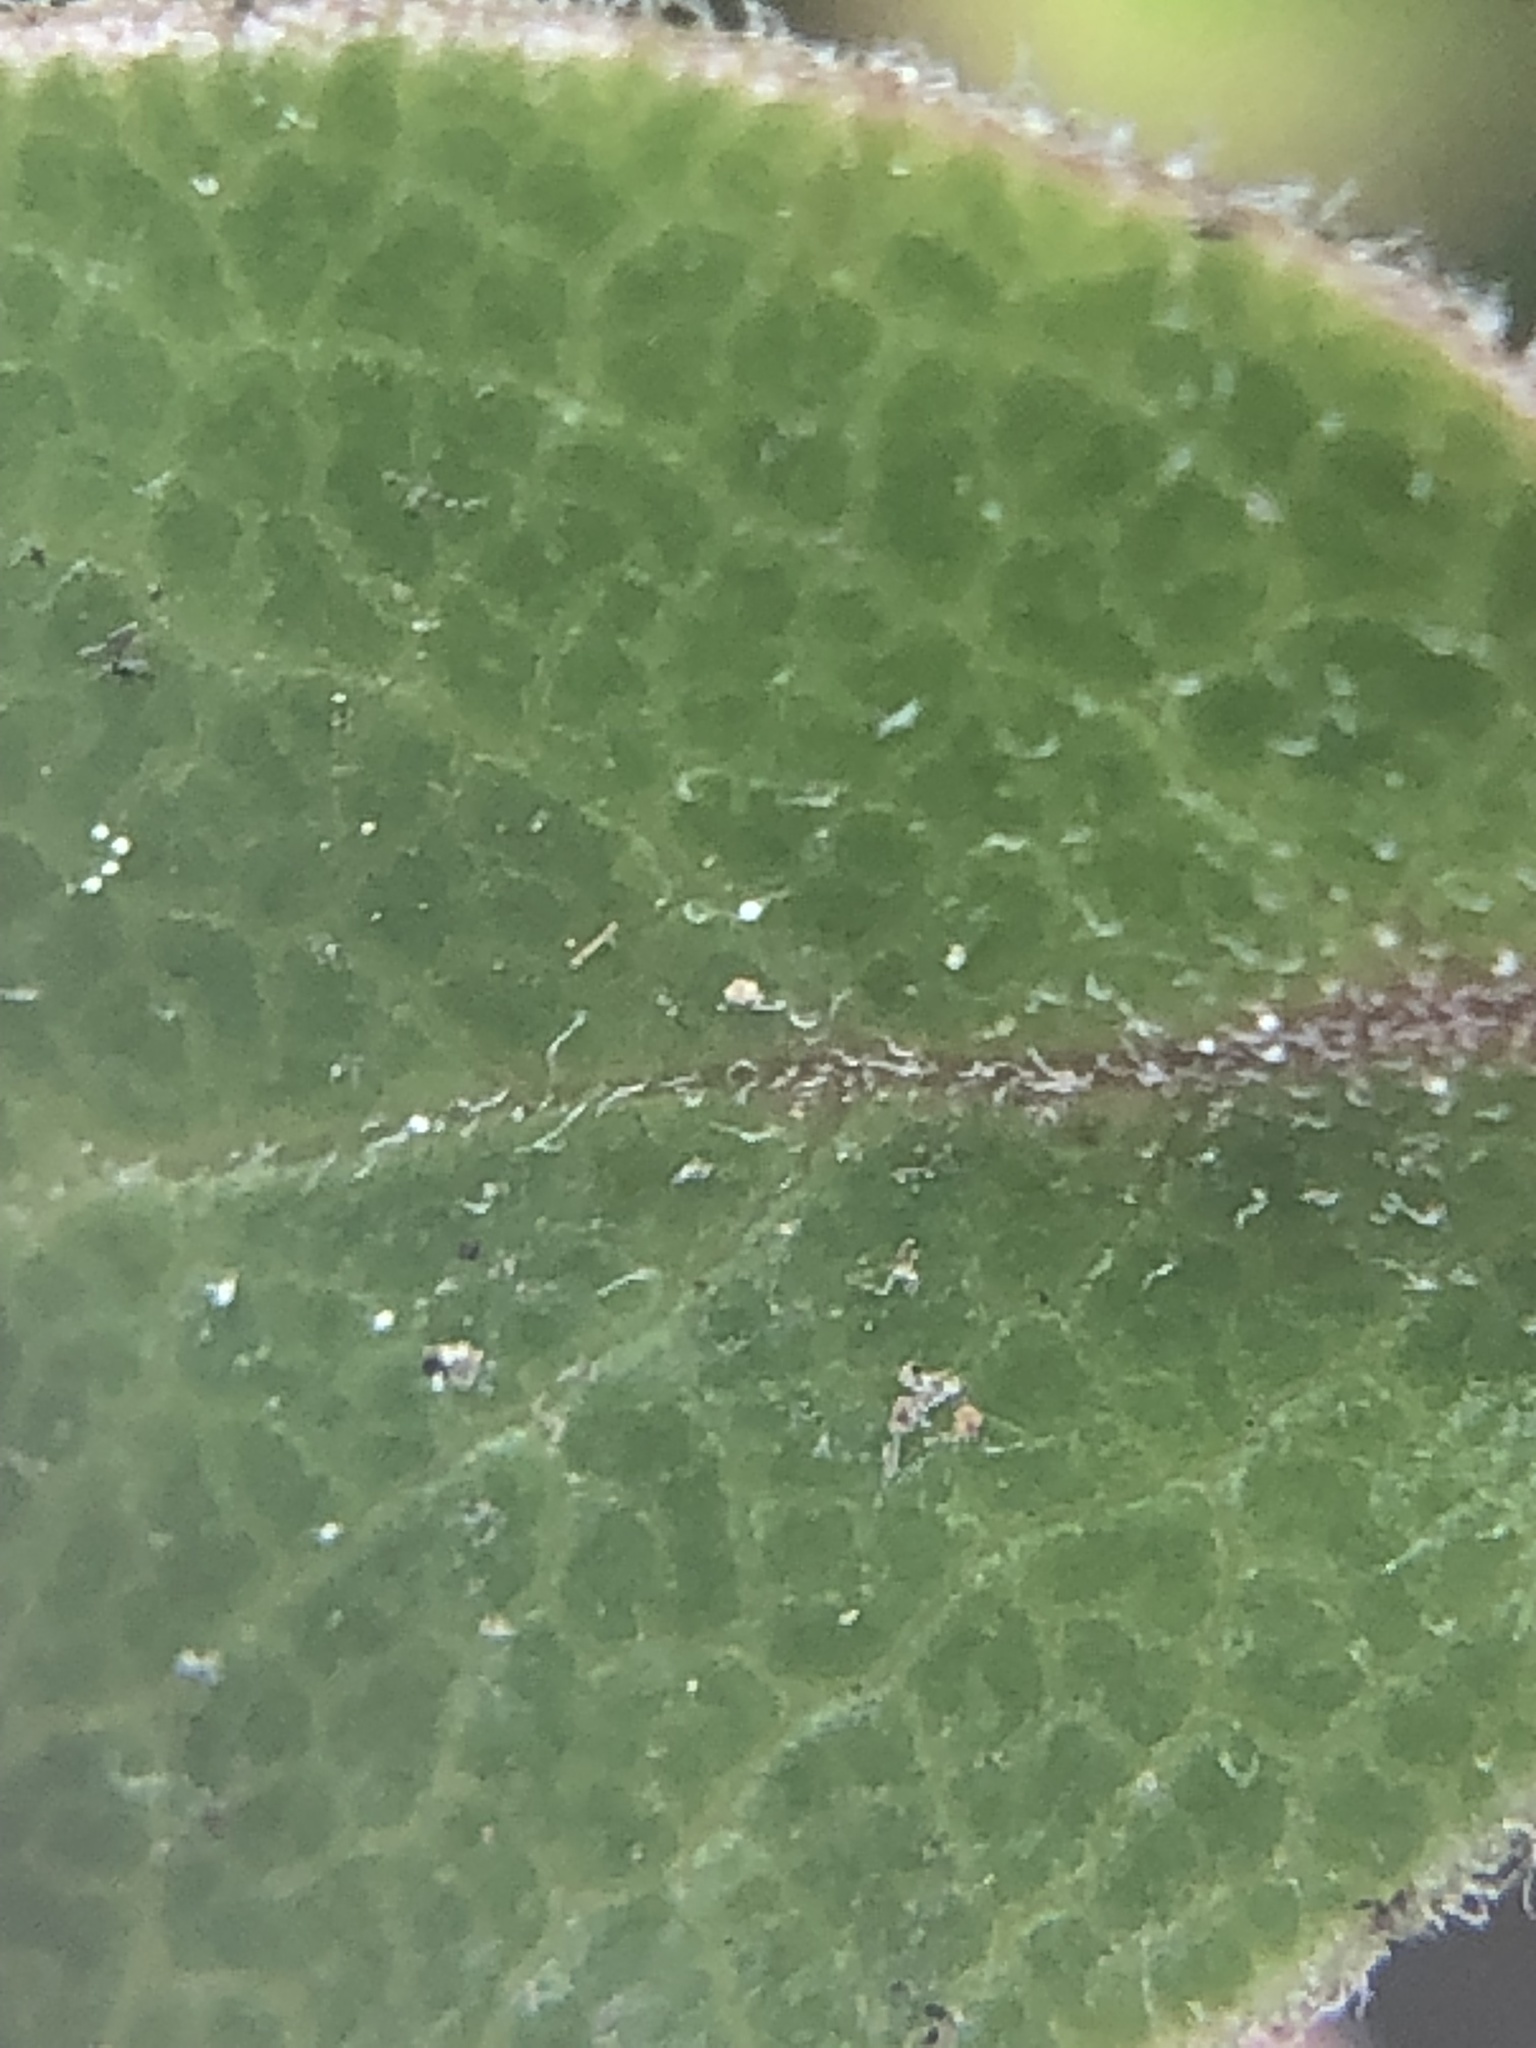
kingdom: Plantae
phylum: Tracheophyta
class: Magnoliopsida
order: Ericales
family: Ericaceae
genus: Arctostaphylos
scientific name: Arctostaphylos uva-ursi
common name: Bearberry
